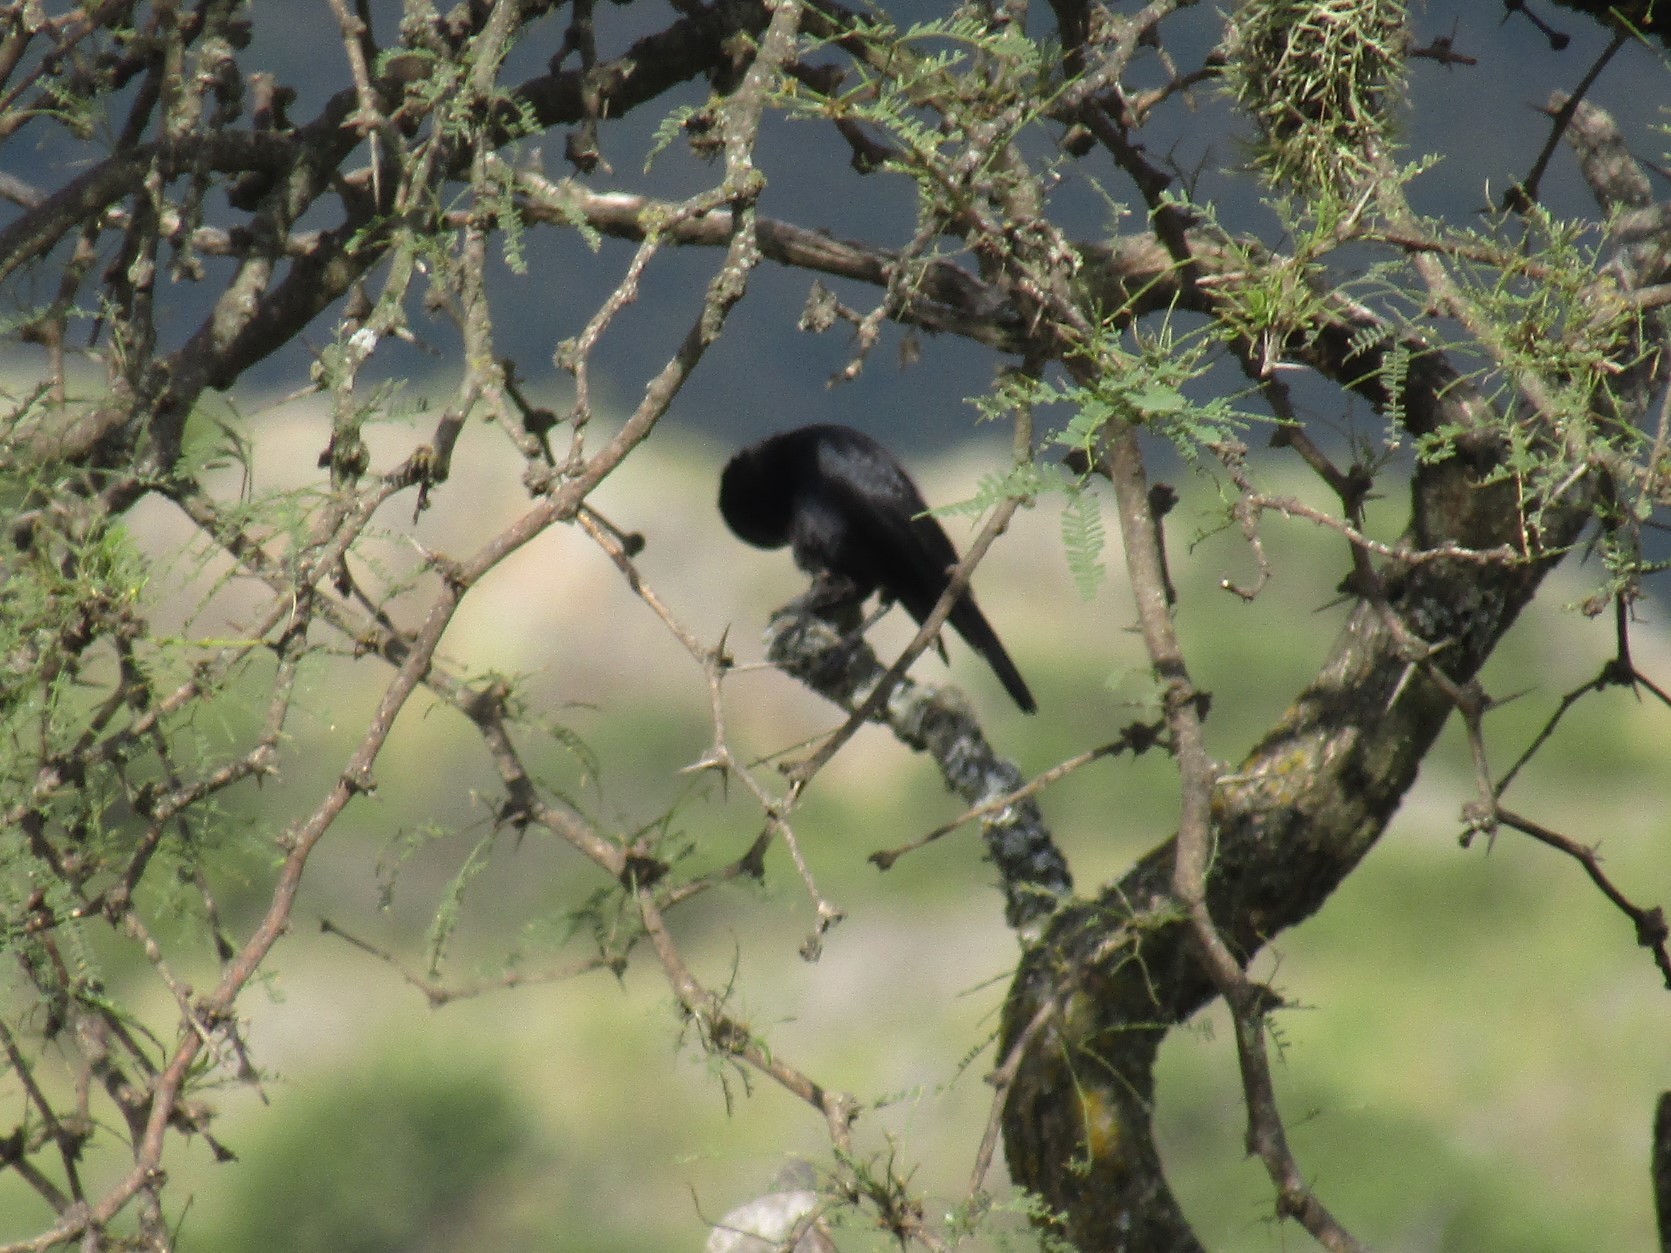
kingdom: Animalia
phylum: Chordata
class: Aves
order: Passeriformes
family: Icteridae
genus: Molothrus
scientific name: Molothrus bonariensis
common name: Shiny cowbird
